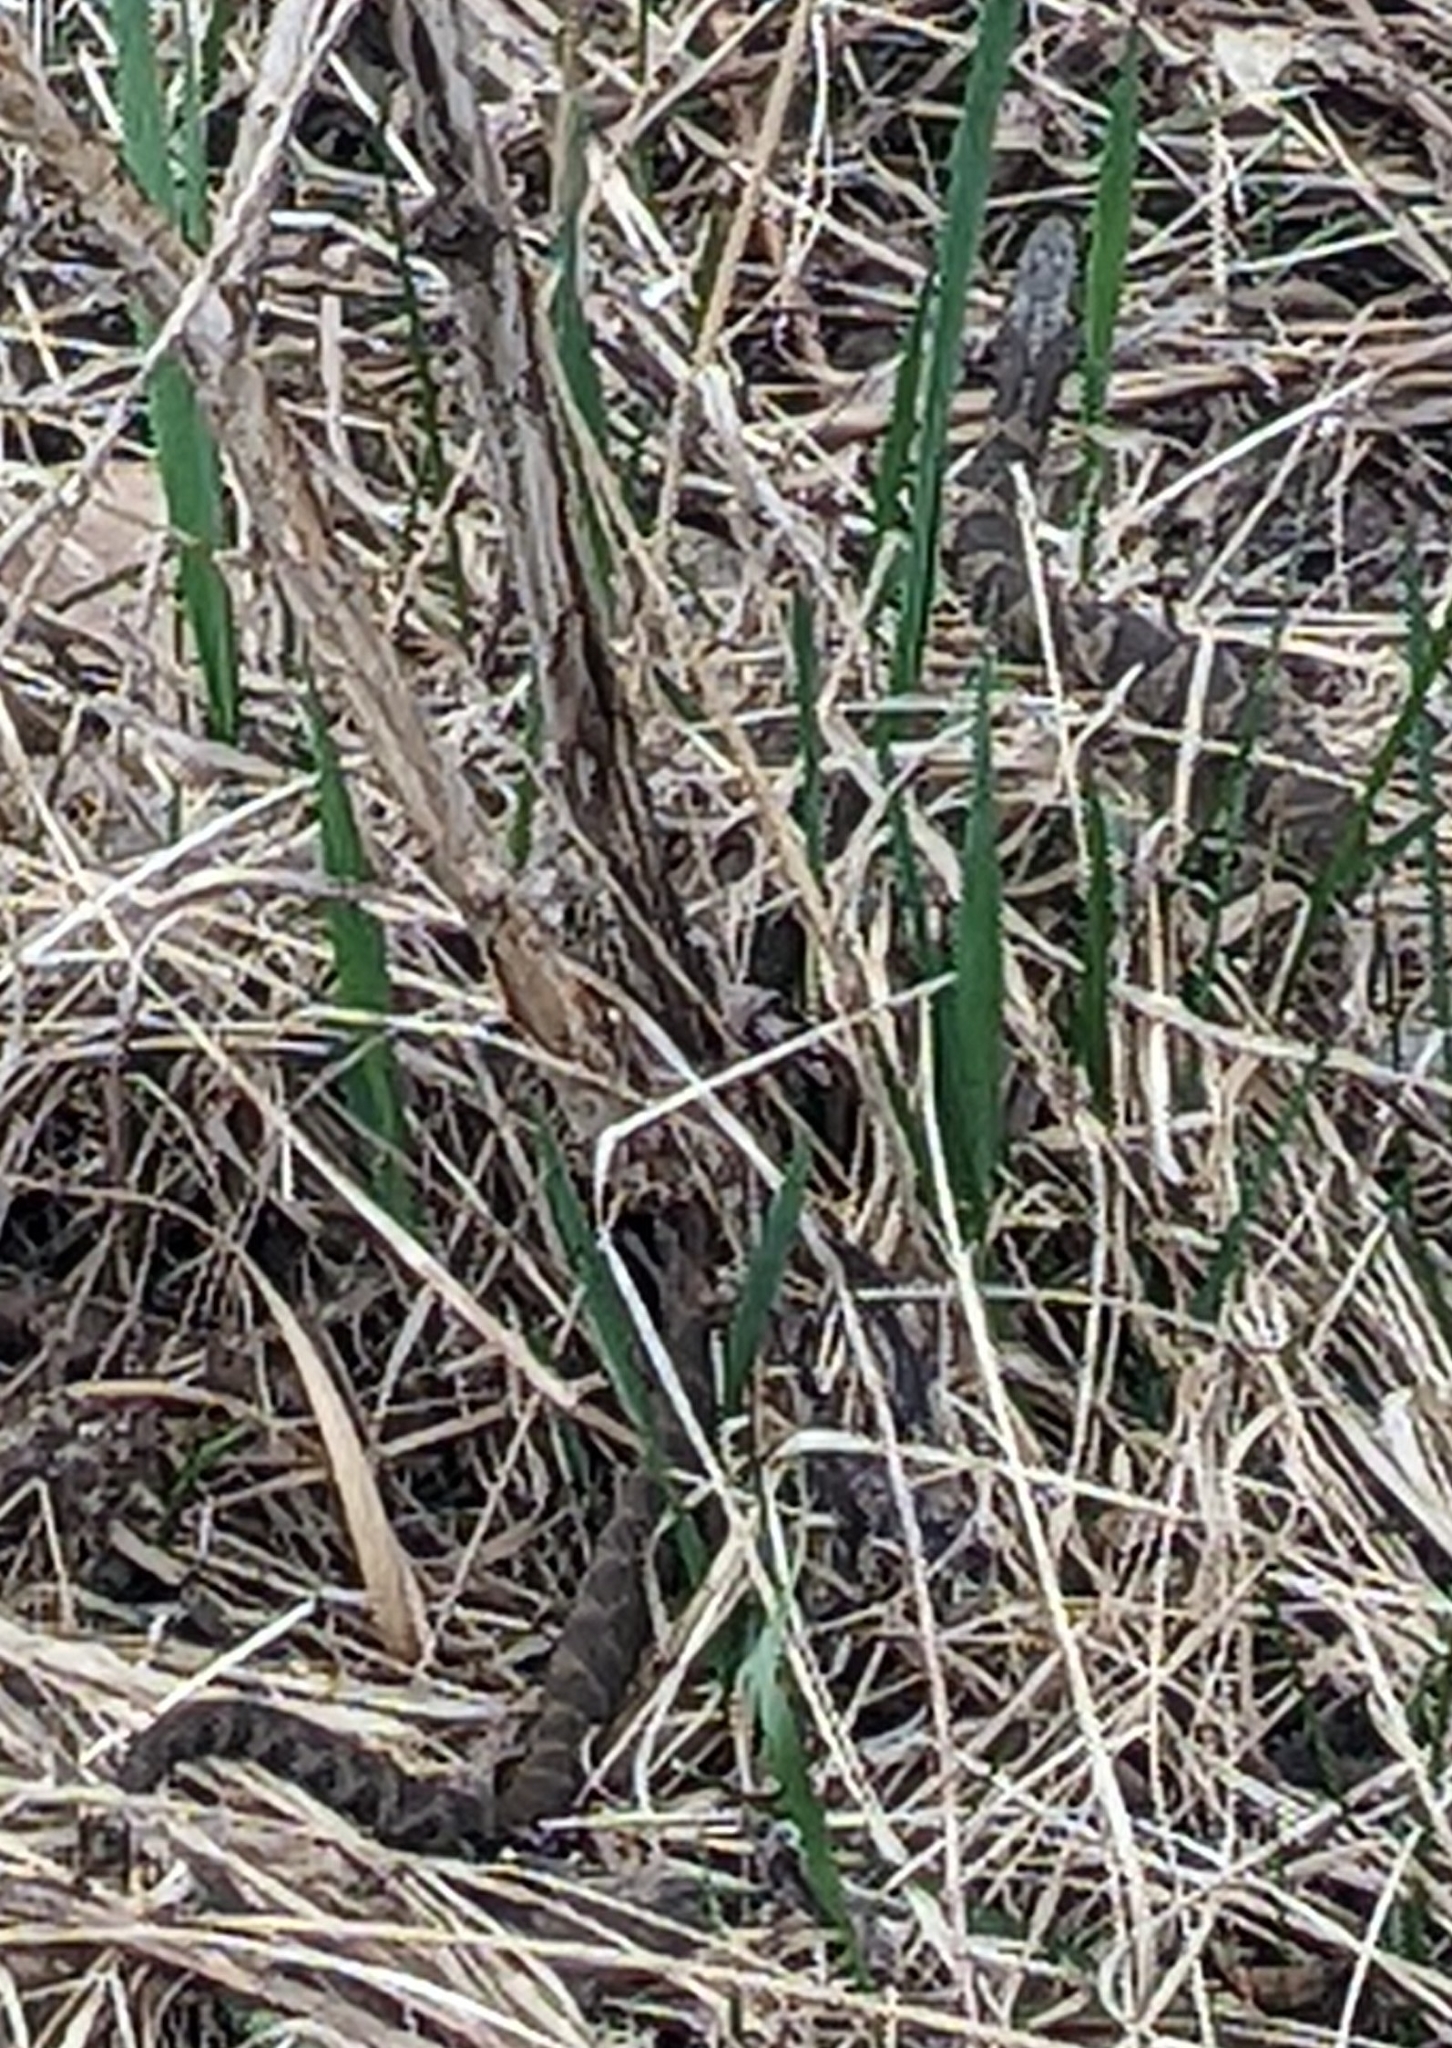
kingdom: Animalia
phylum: Chordata
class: Squamata
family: Colubridae
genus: Nerodia
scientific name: Nerodia sipedon
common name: Northern water snake
